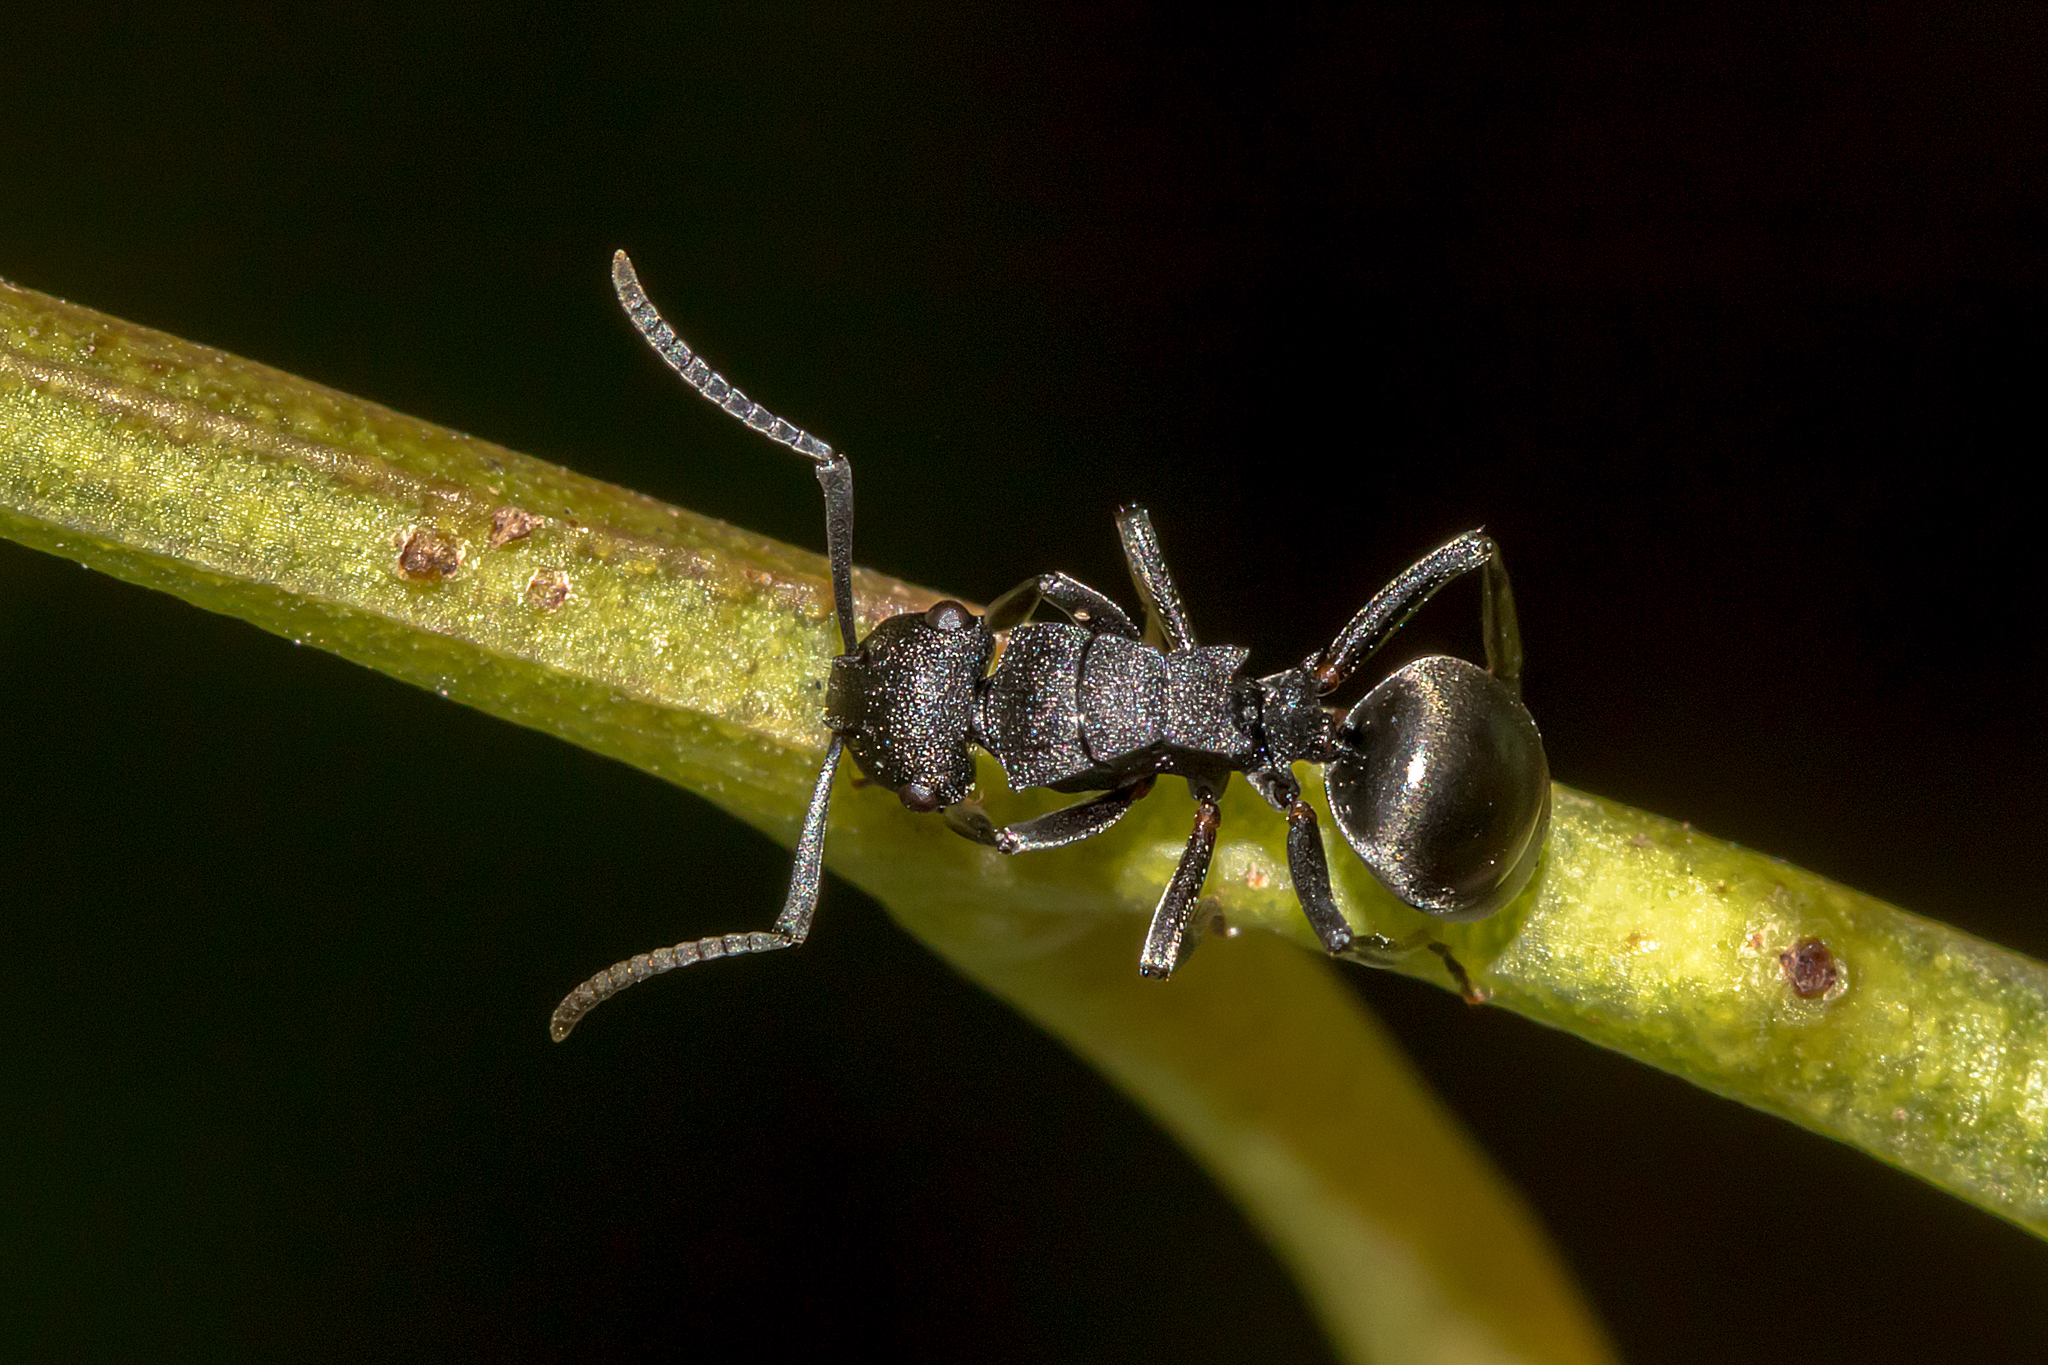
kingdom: Animalia
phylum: Arthropoda
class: Insecta
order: Hymenoptera
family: Formicidae
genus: Polyrhachis
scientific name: Polyrhachis phryne
